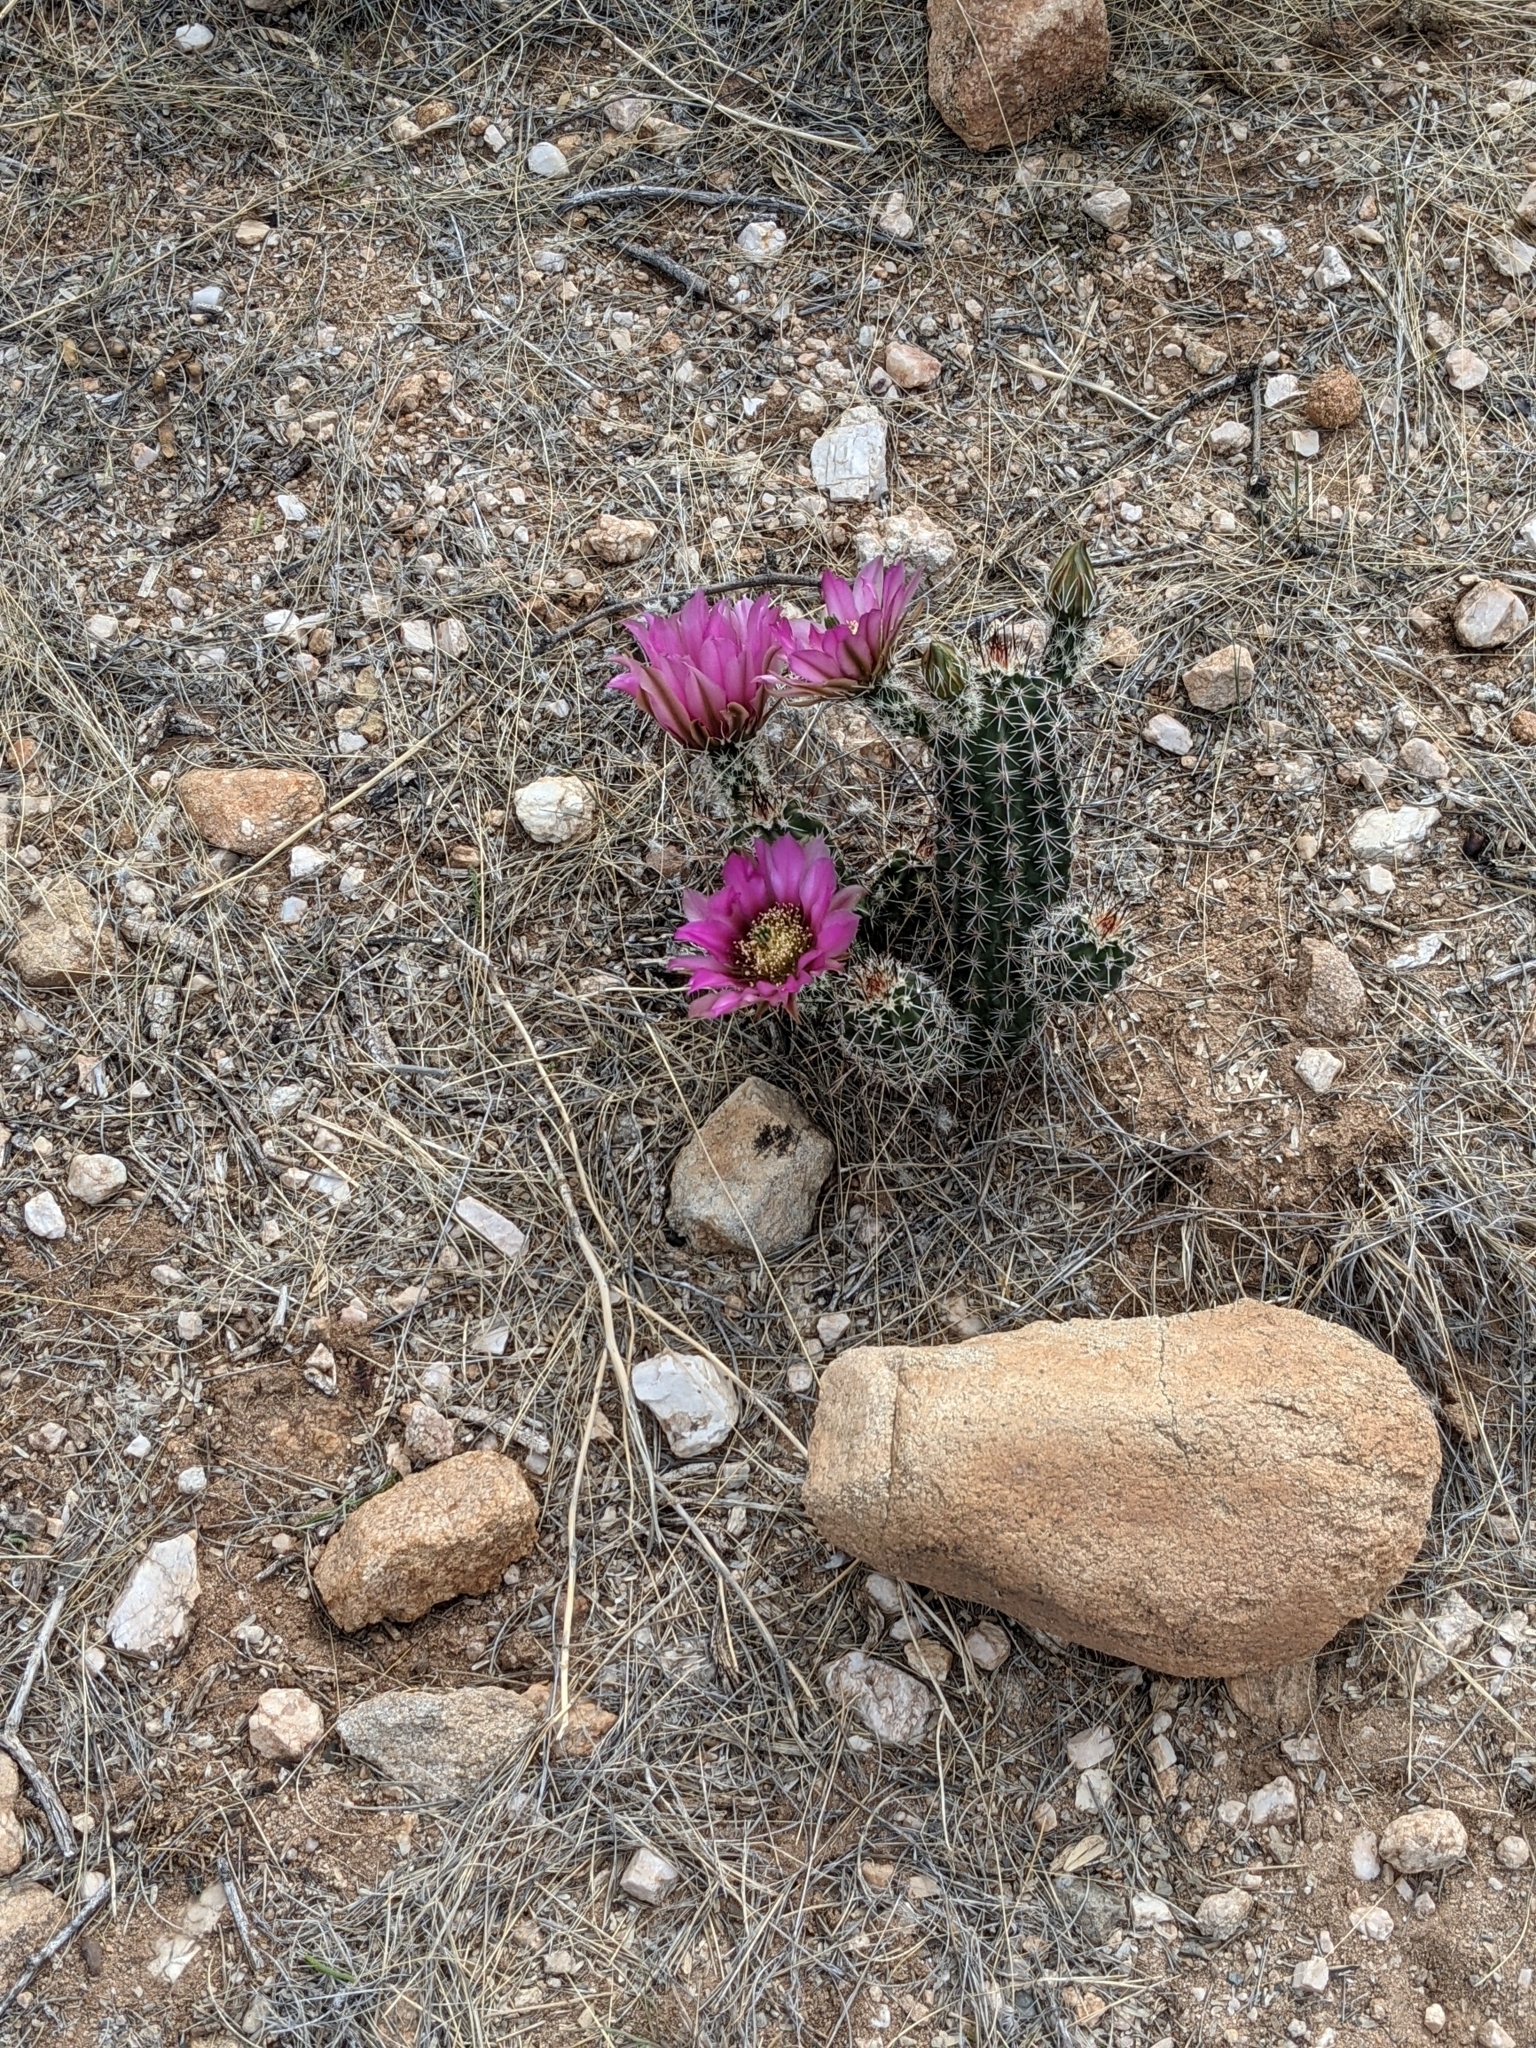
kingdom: Plantae
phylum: Tracheophyta
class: Magnoliopsida
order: Caryophyllales
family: Cactaceae
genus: Echinocereus
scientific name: Echinocereus fasciculatus
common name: Bundle hedgehog
